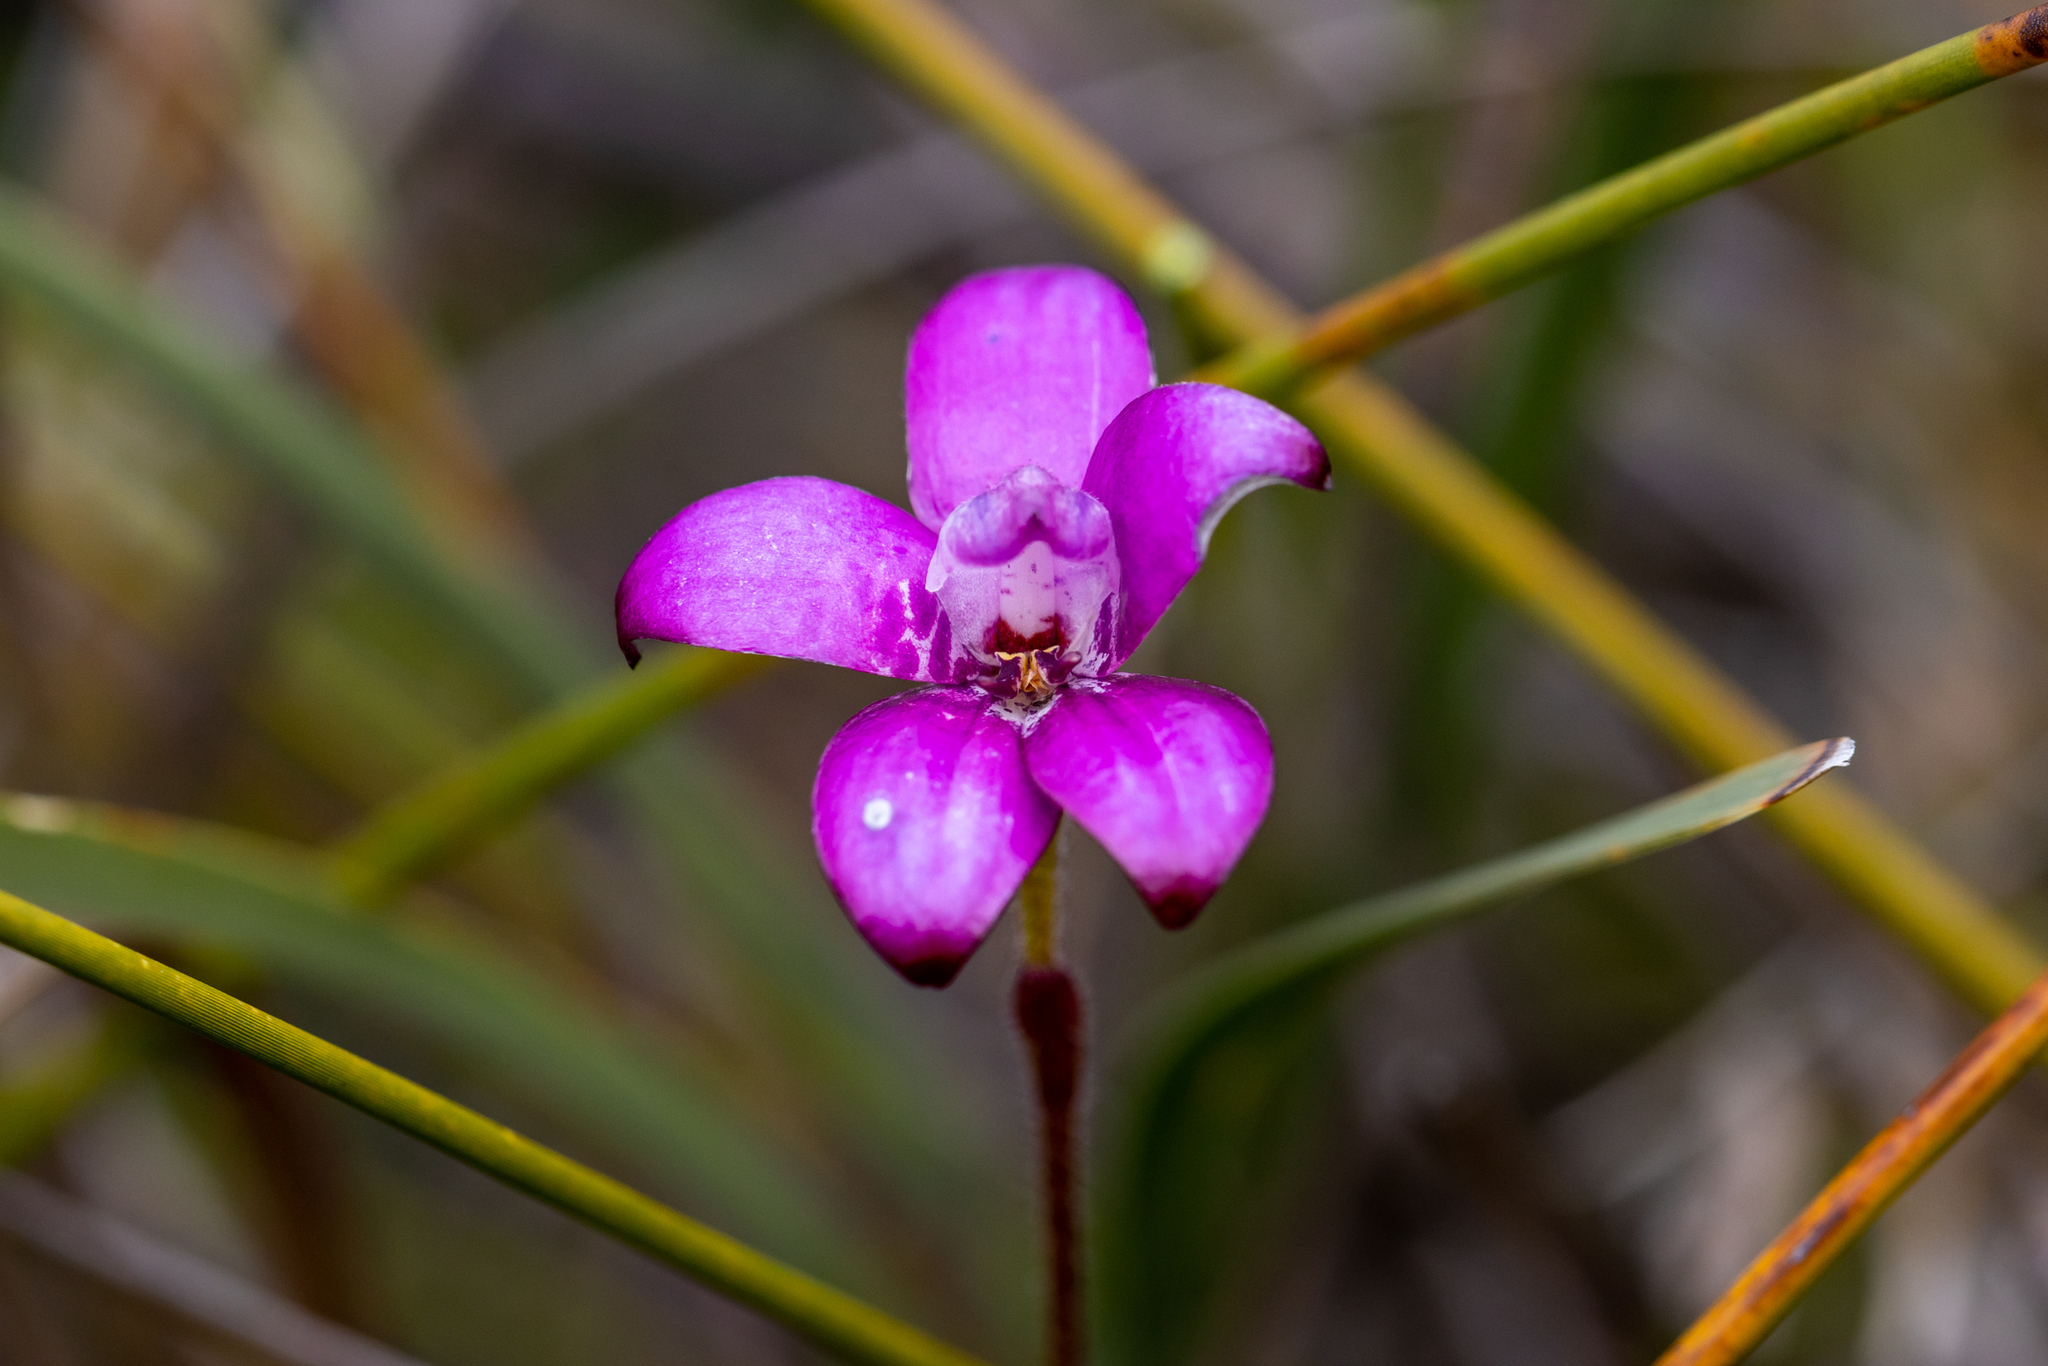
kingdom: Plantae
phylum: Tracheophyta
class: Liliopsida
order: Asparagales
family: Orchidaceae
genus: Caladenia
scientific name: Caladenia brunonis
